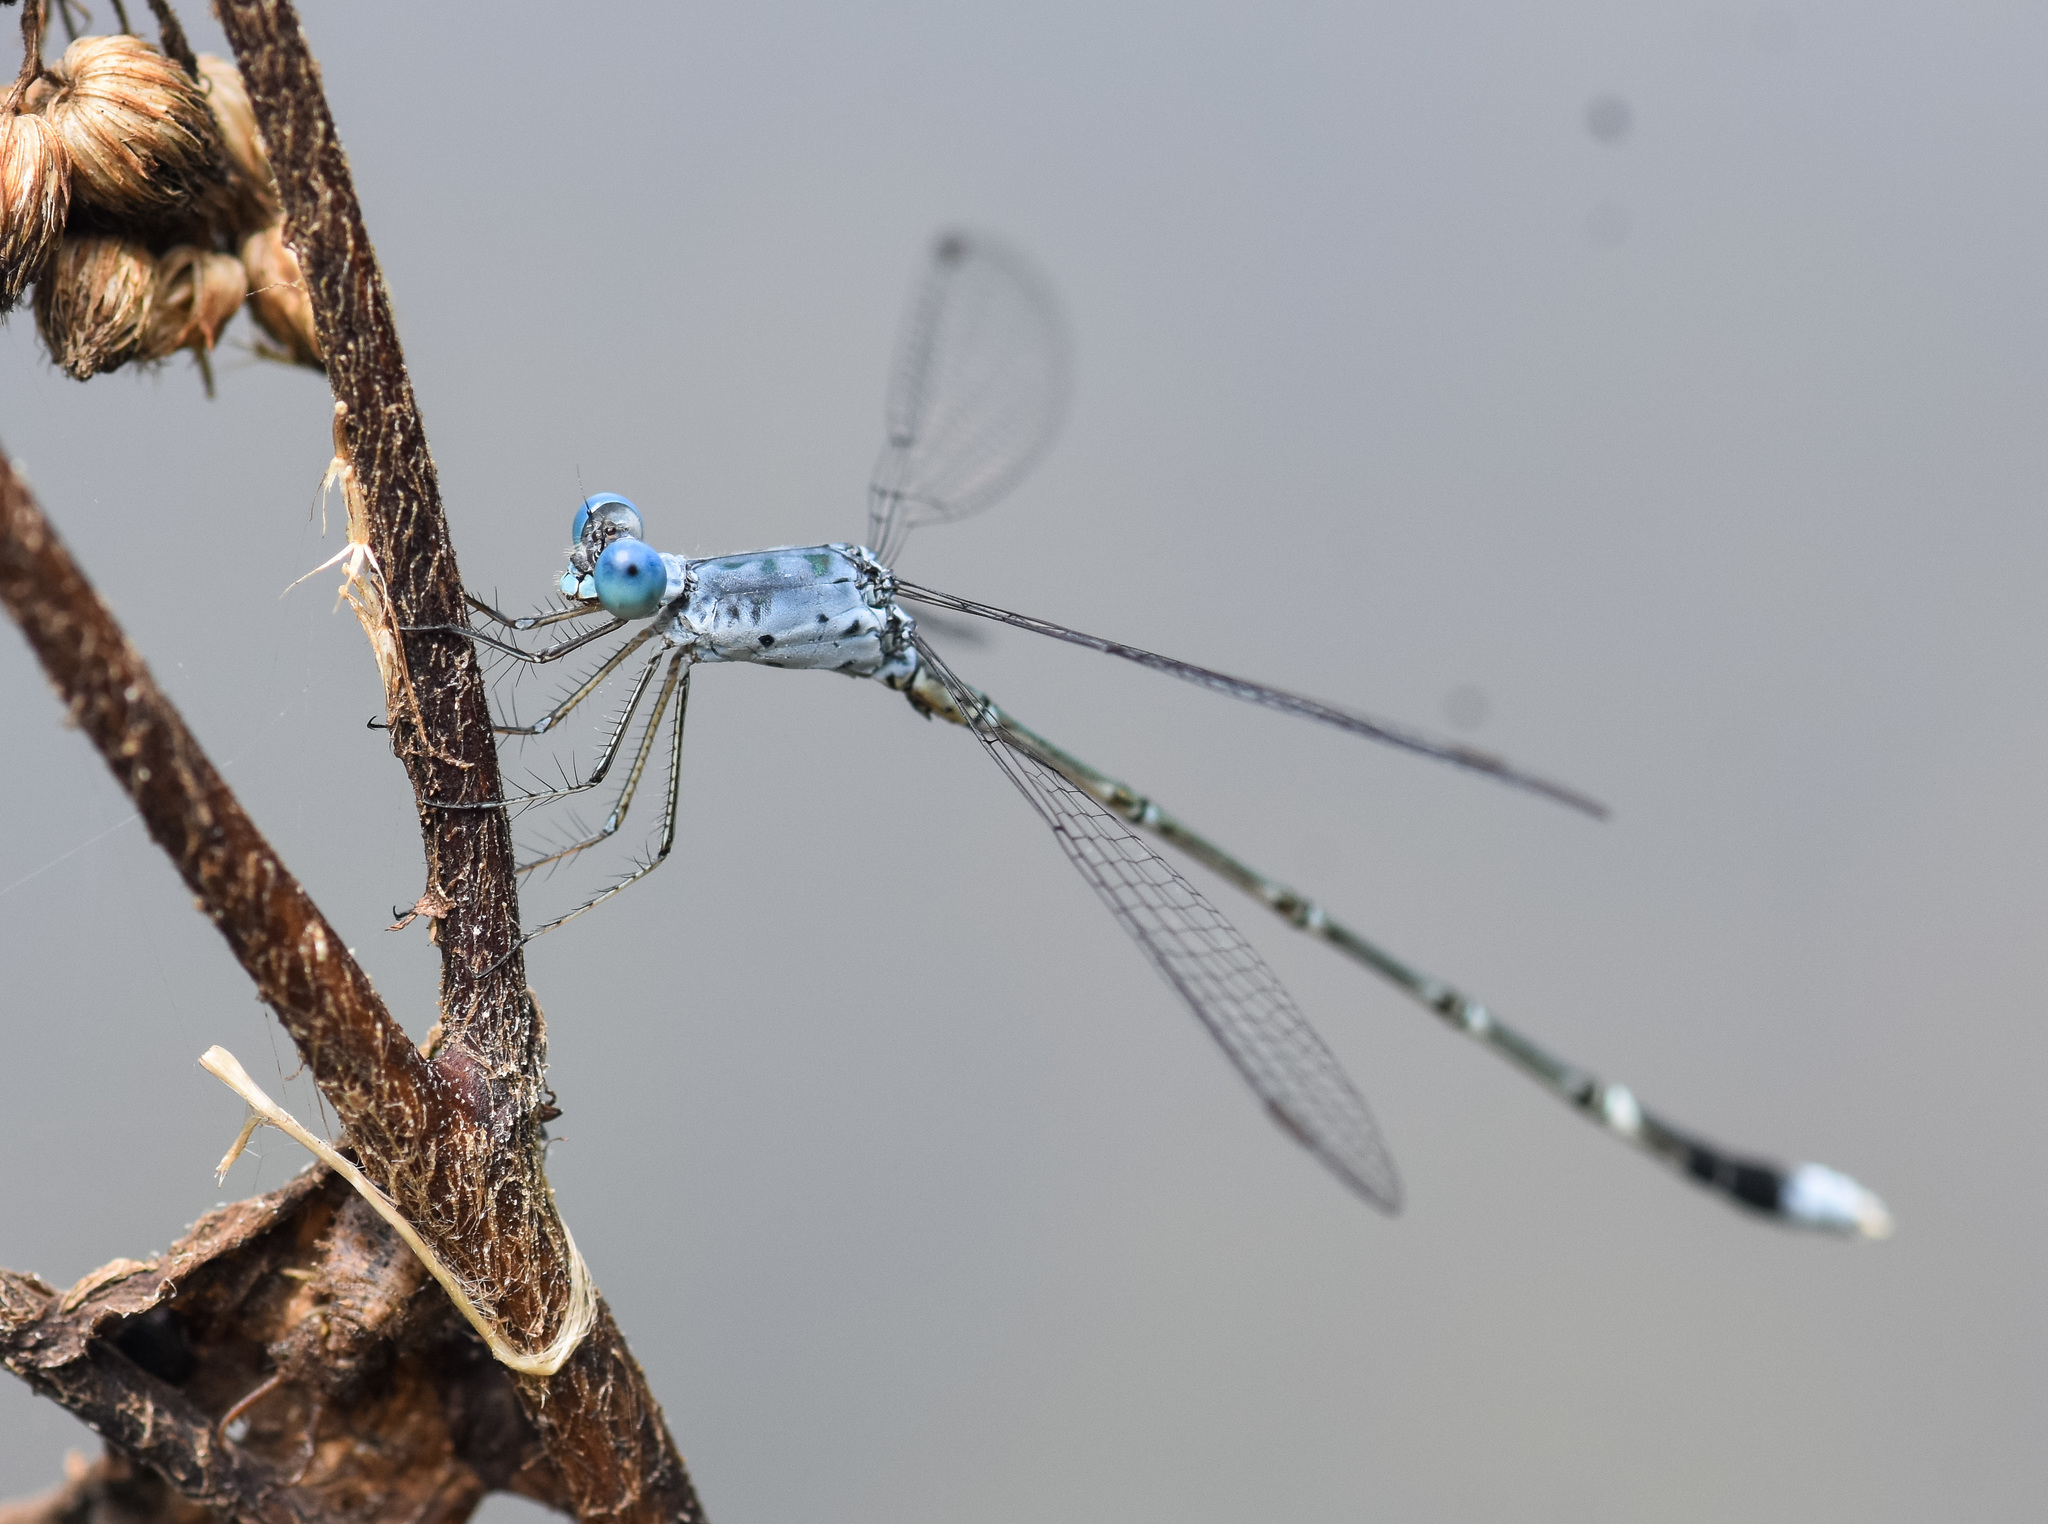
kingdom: Animalia
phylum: Arthropoda
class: Insecta
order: Odonata
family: Lestidae
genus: Lestes
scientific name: Lestes praemorsus
